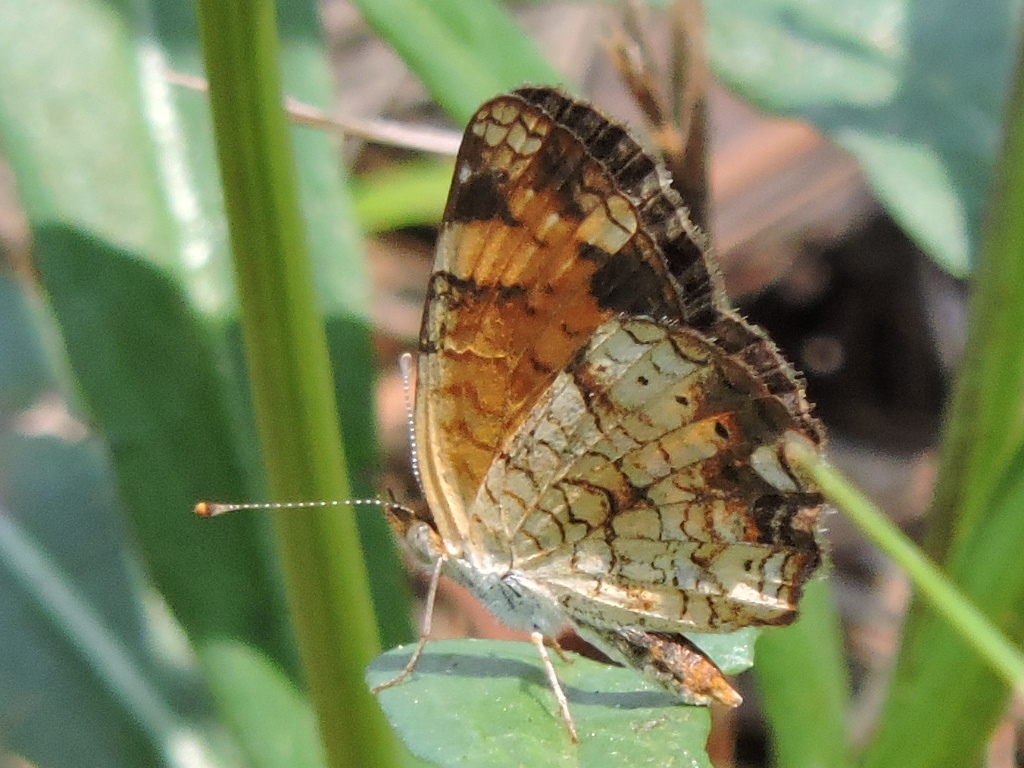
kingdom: Animalia
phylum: Arthropoda
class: Insecta
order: Lepidoptera
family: Nymphalidae
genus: Phyciodes
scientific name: Phyciodes tharos
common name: Pearl crescent
